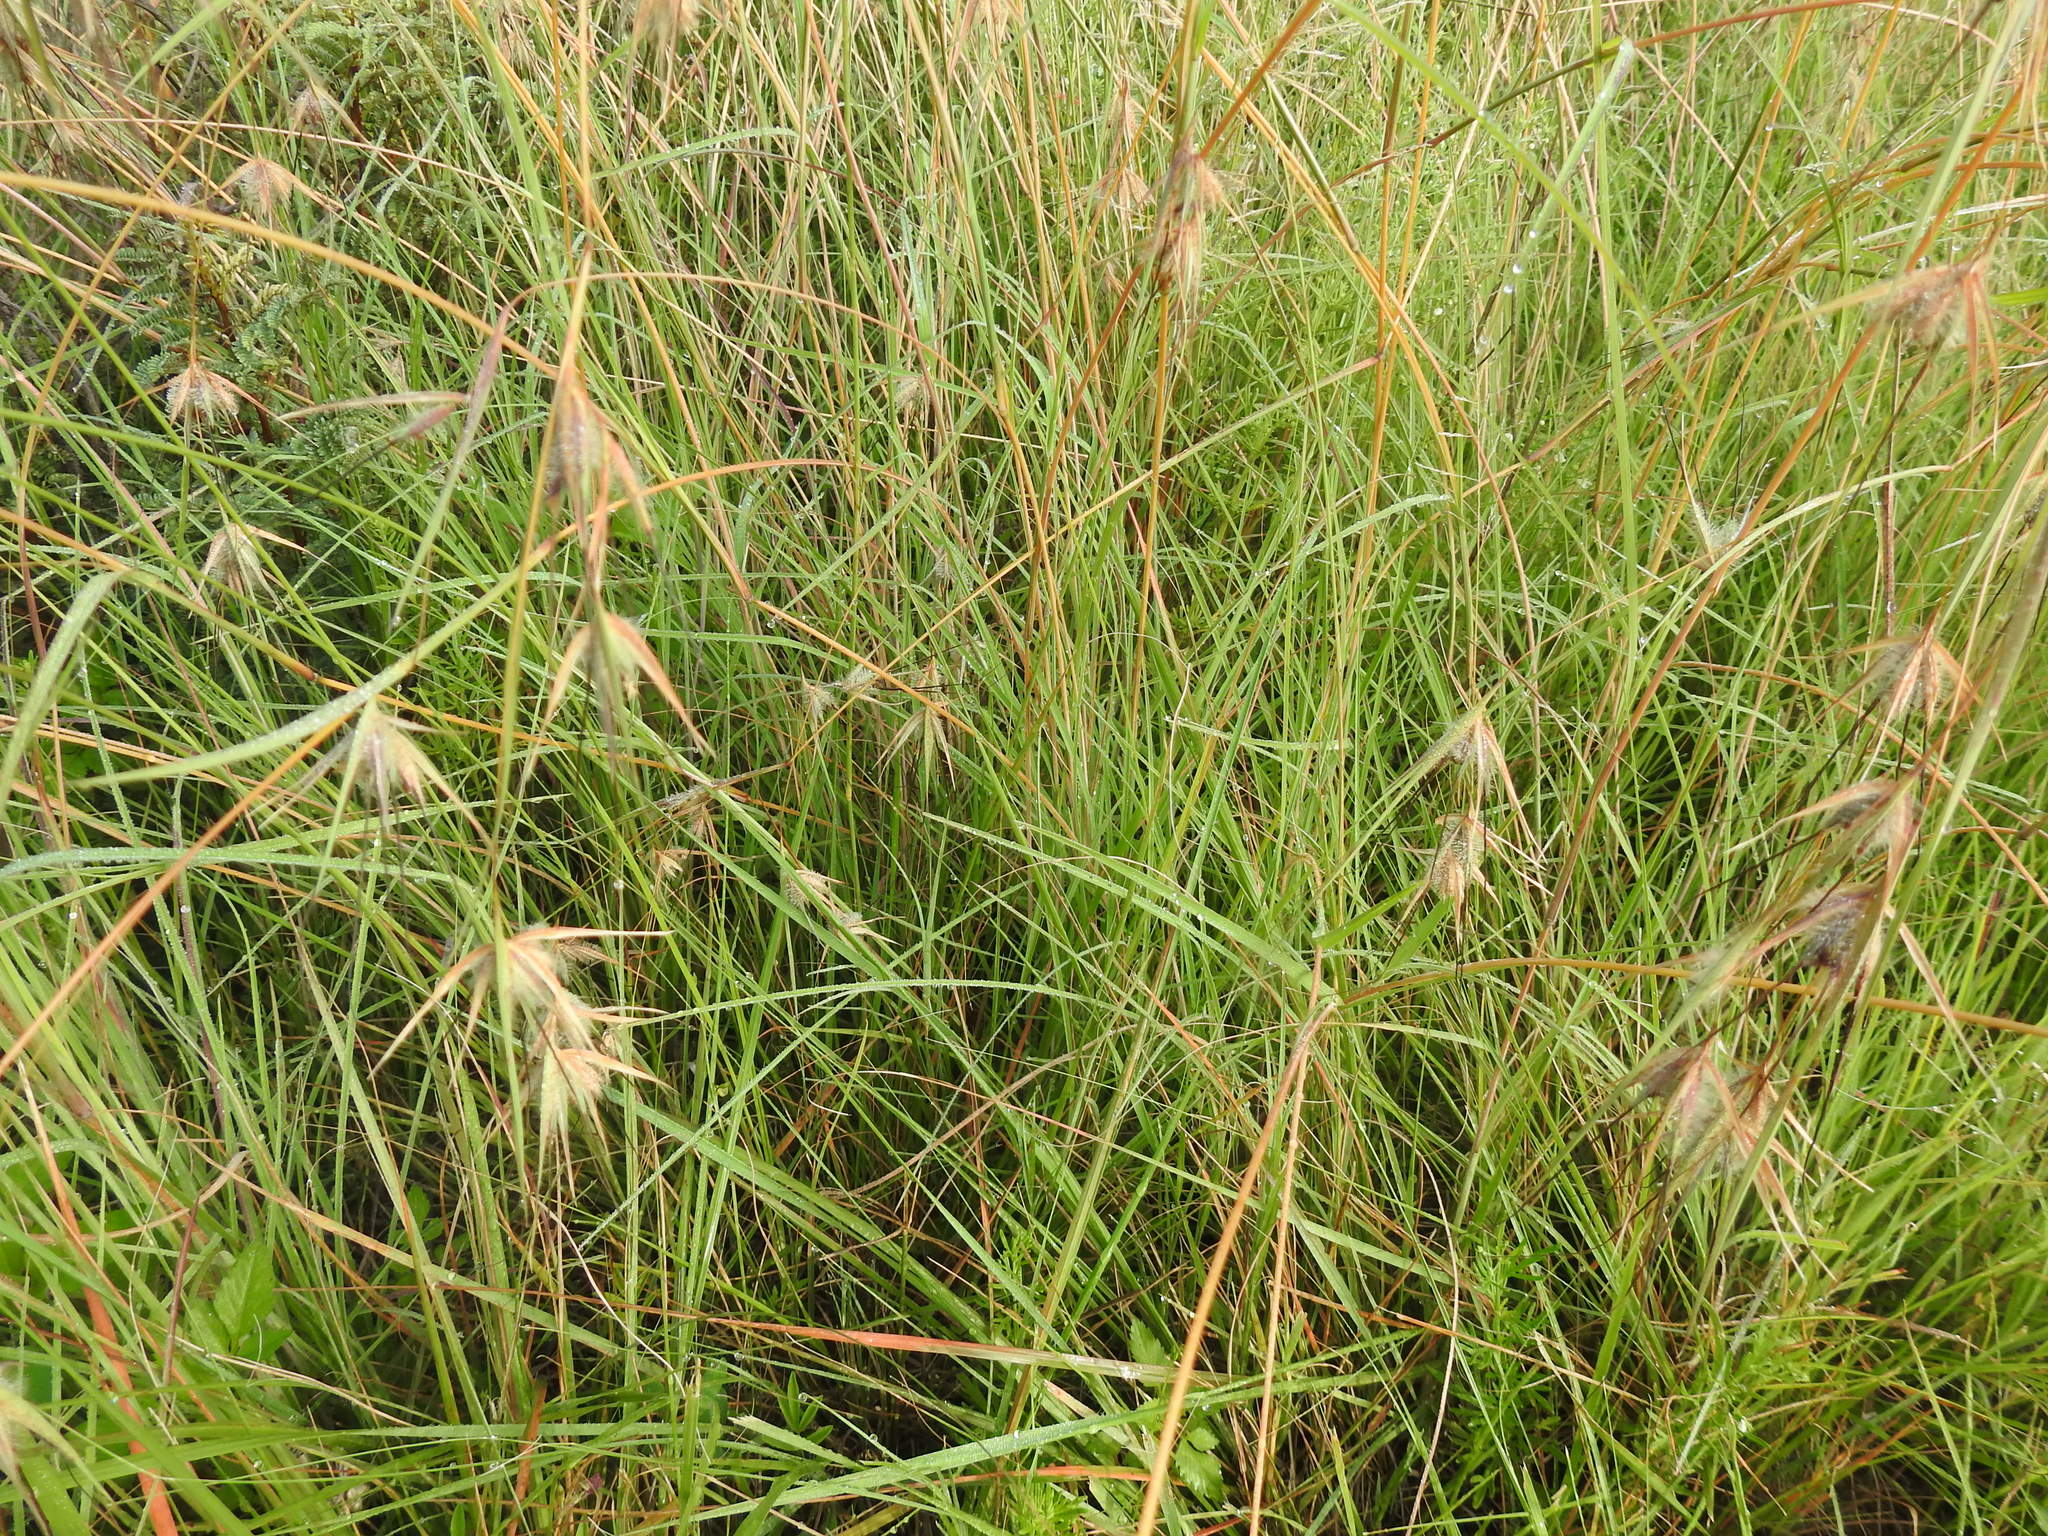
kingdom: Plantae
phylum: Tracheophyta
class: Liliopsida
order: Poales
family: Poaceae
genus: Themeda
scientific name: Themeda triandra
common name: Kangaroo grass
